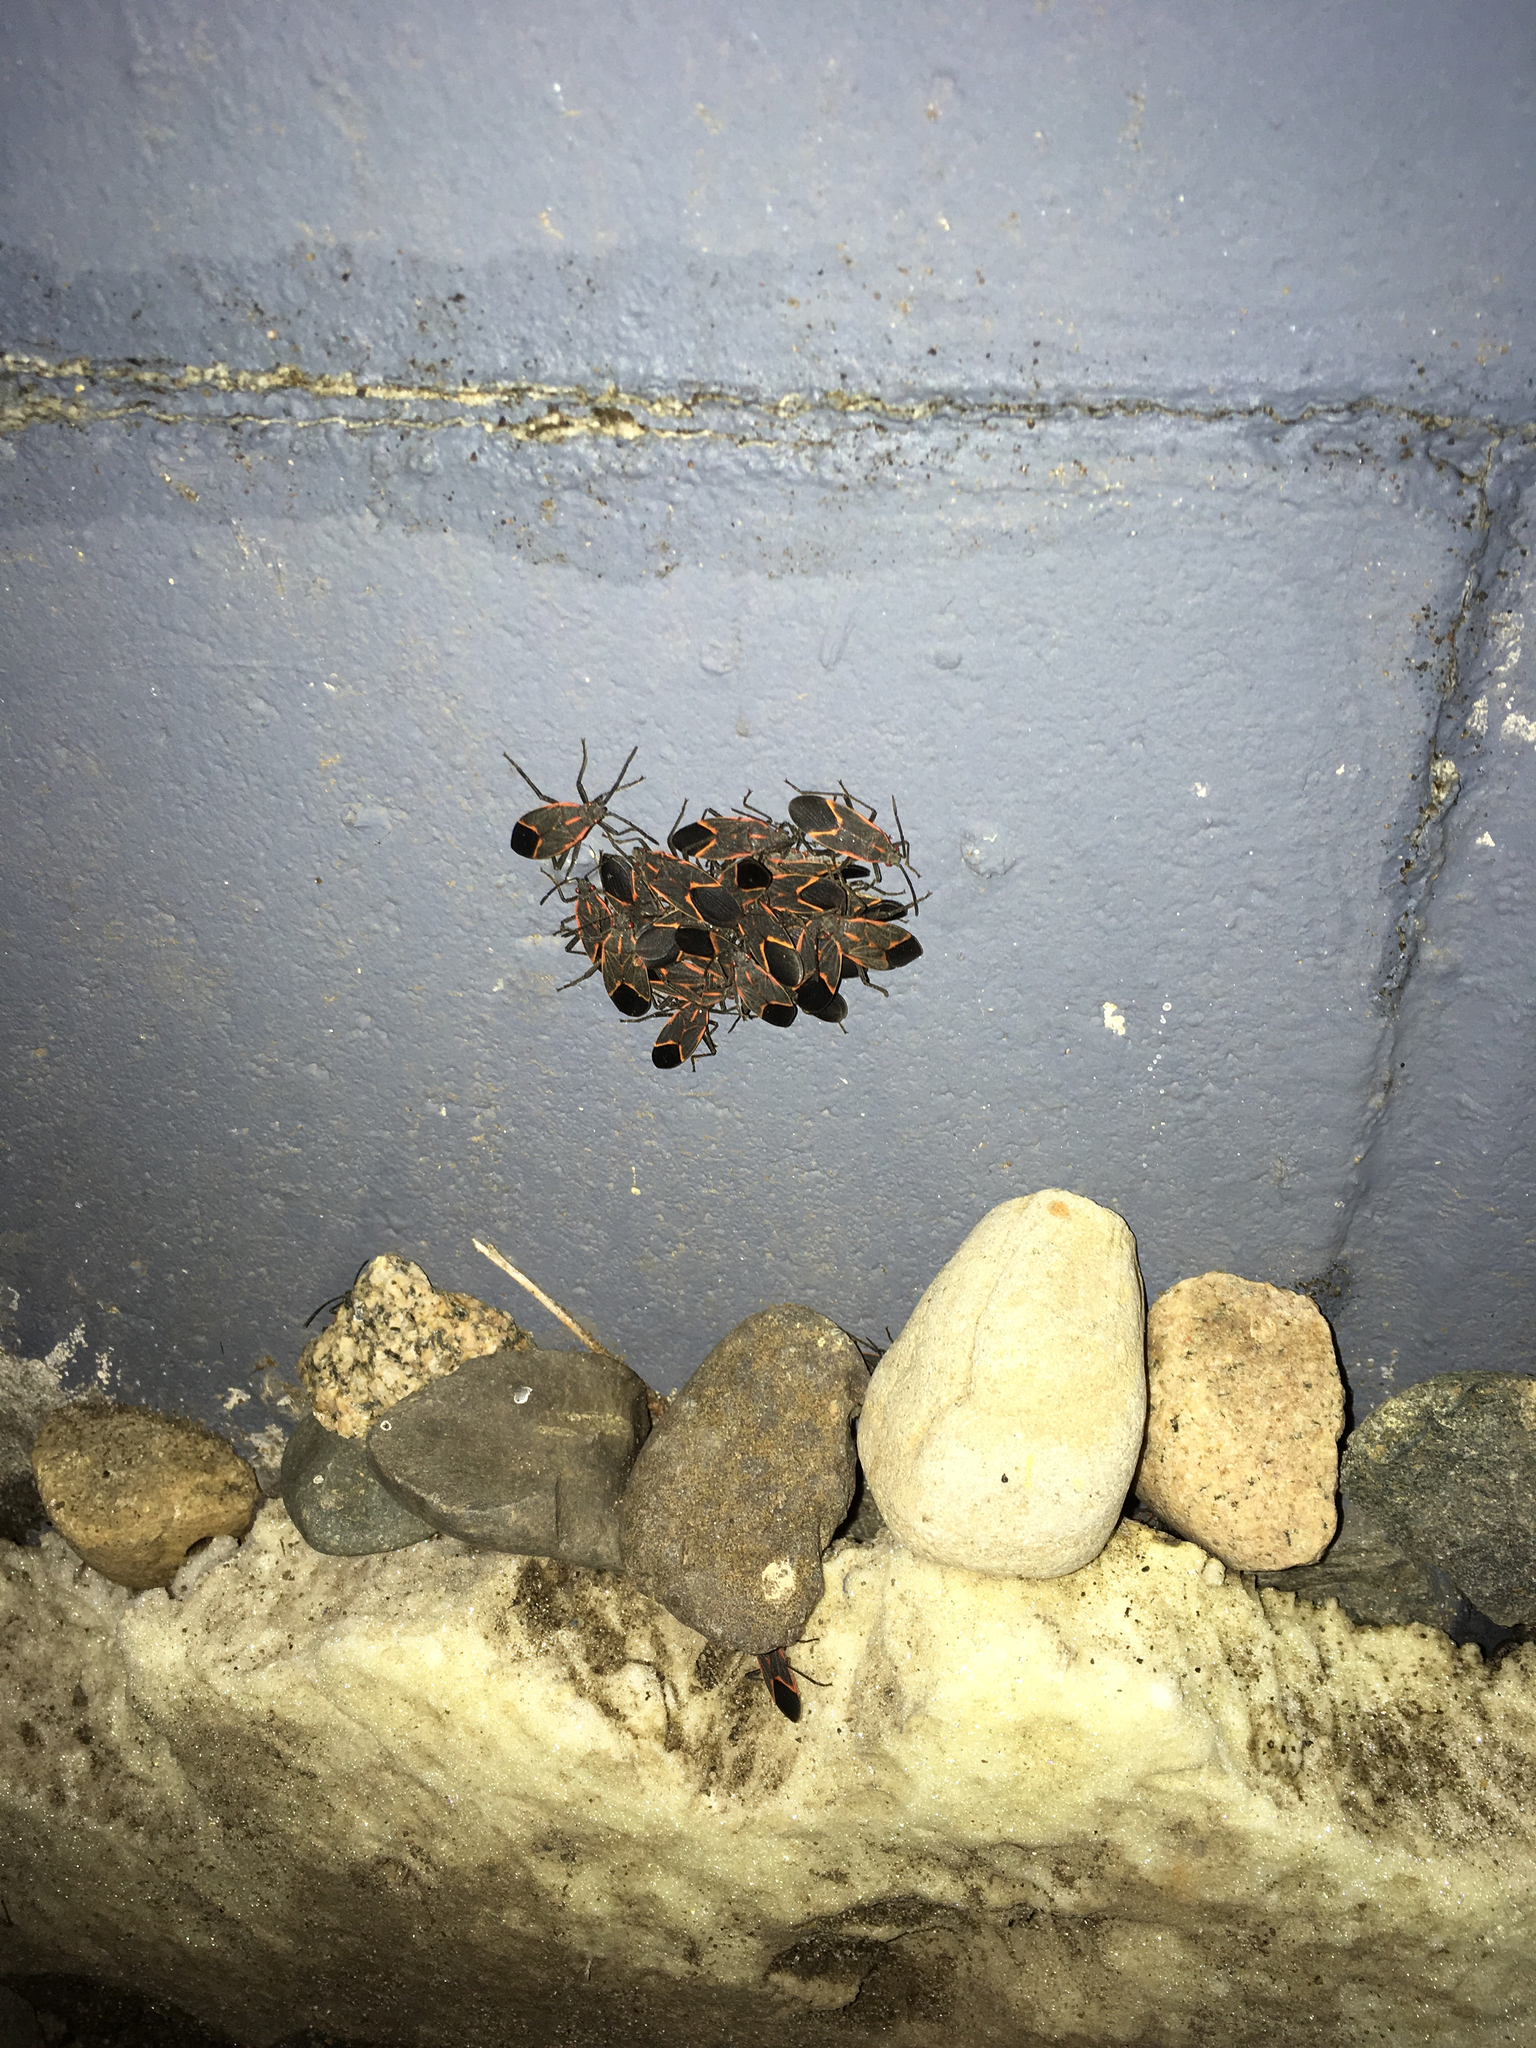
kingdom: Animalia
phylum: Arthropoda
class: Insecta
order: Hemiptera
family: Rhopalidae
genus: Boisea
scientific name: Boisea trivittata
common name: Boxelder bug
